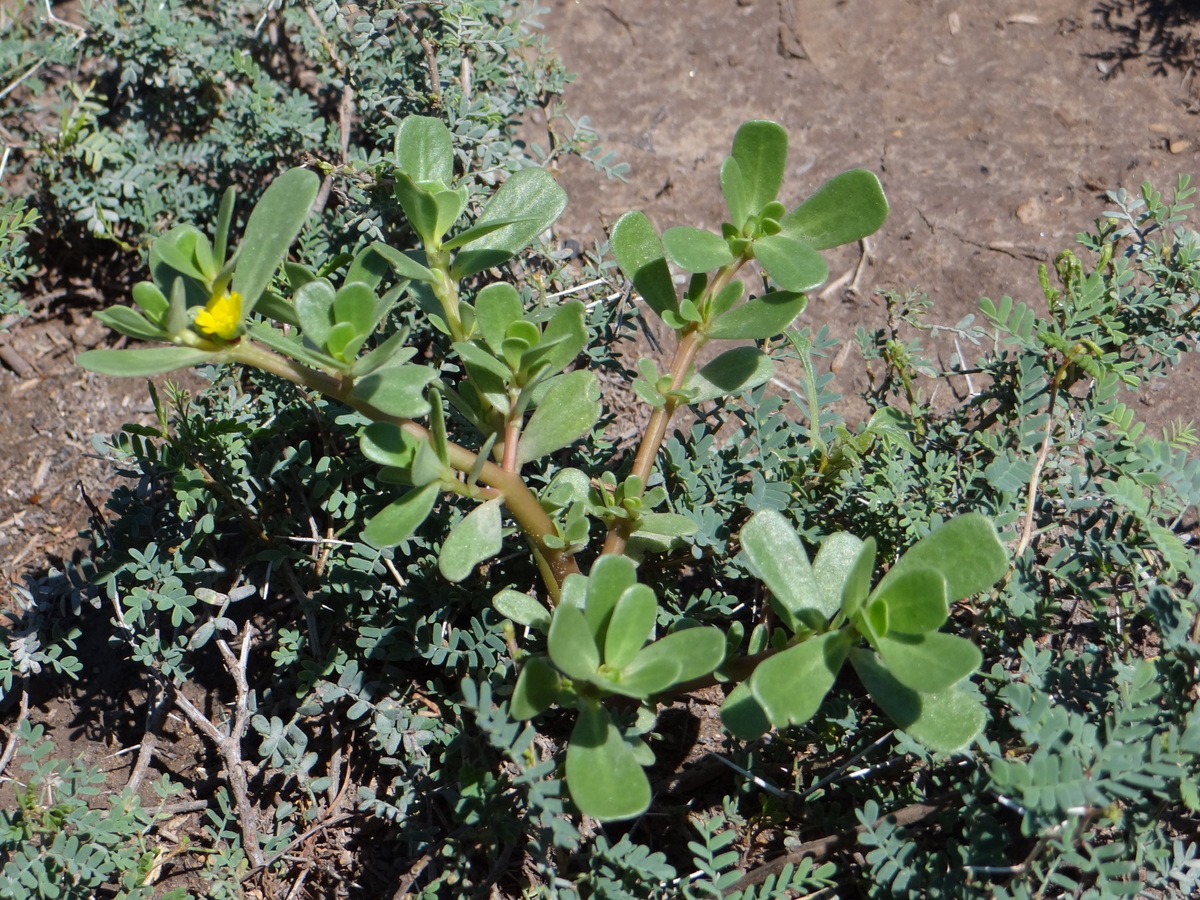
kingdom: Plantae
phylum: Tracheophyta
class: Magnoliopsida
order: Caryophyllales
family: Portulacaceae
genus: Portulaca
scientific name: Portulaca oleracea
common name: Common purslane
